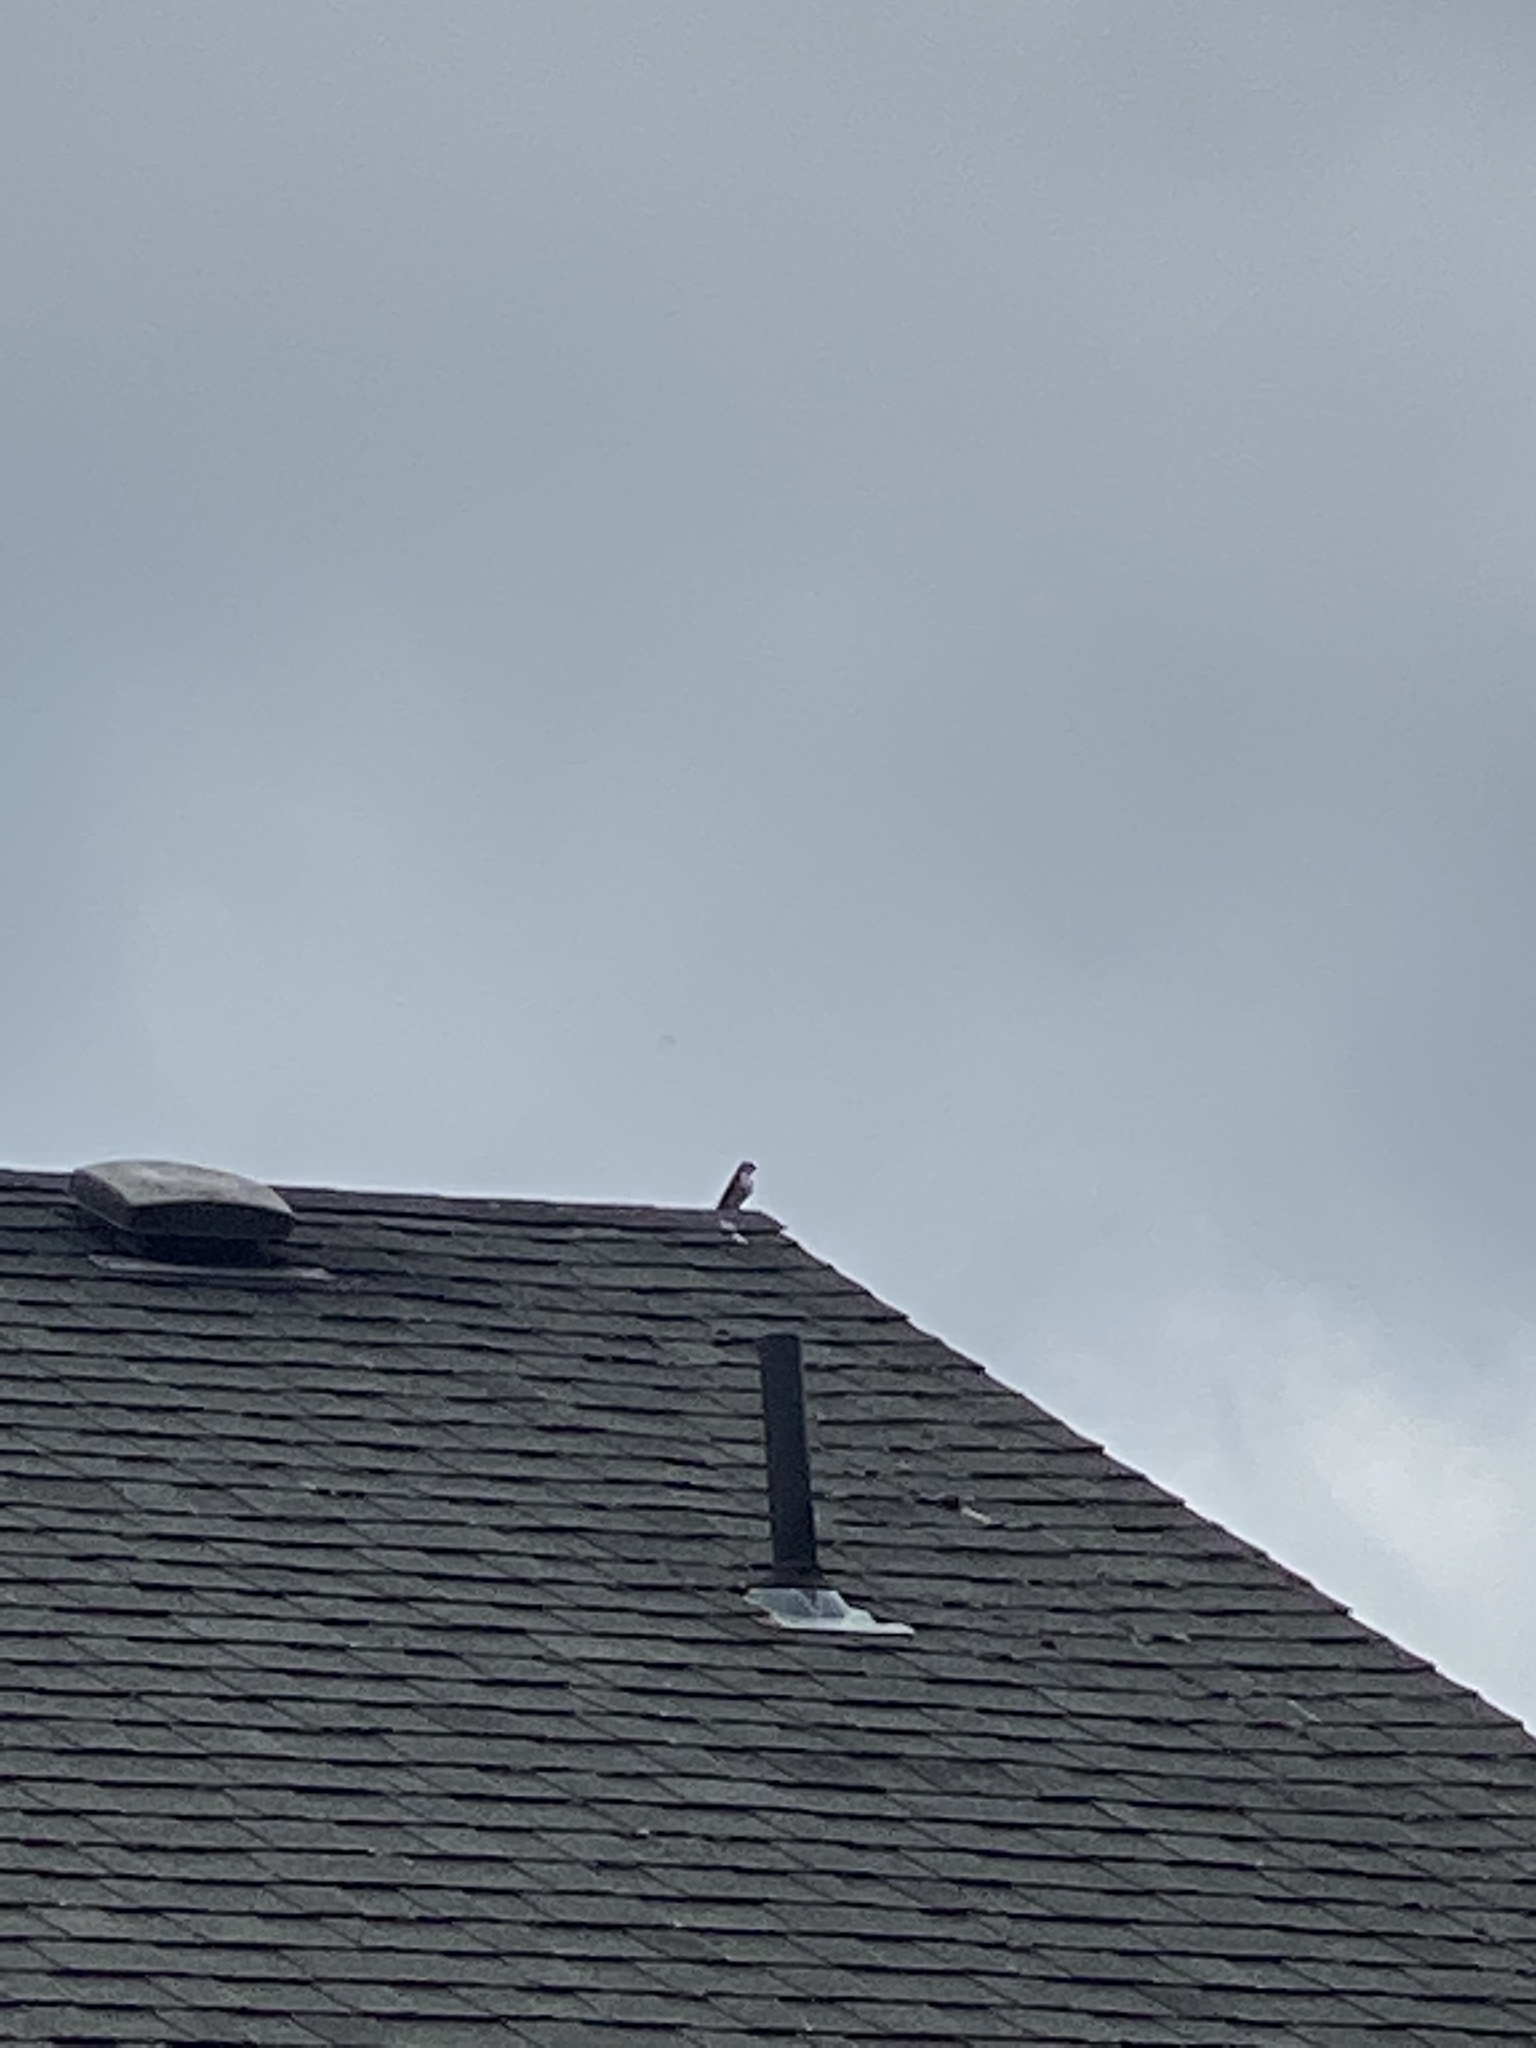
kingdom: Animalia
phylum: Chordata
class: Aves
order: Passeriformes
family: Hirundinidae
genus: Tachycineta
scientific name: Tachycineta thalassina
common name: Violet-green swallow
